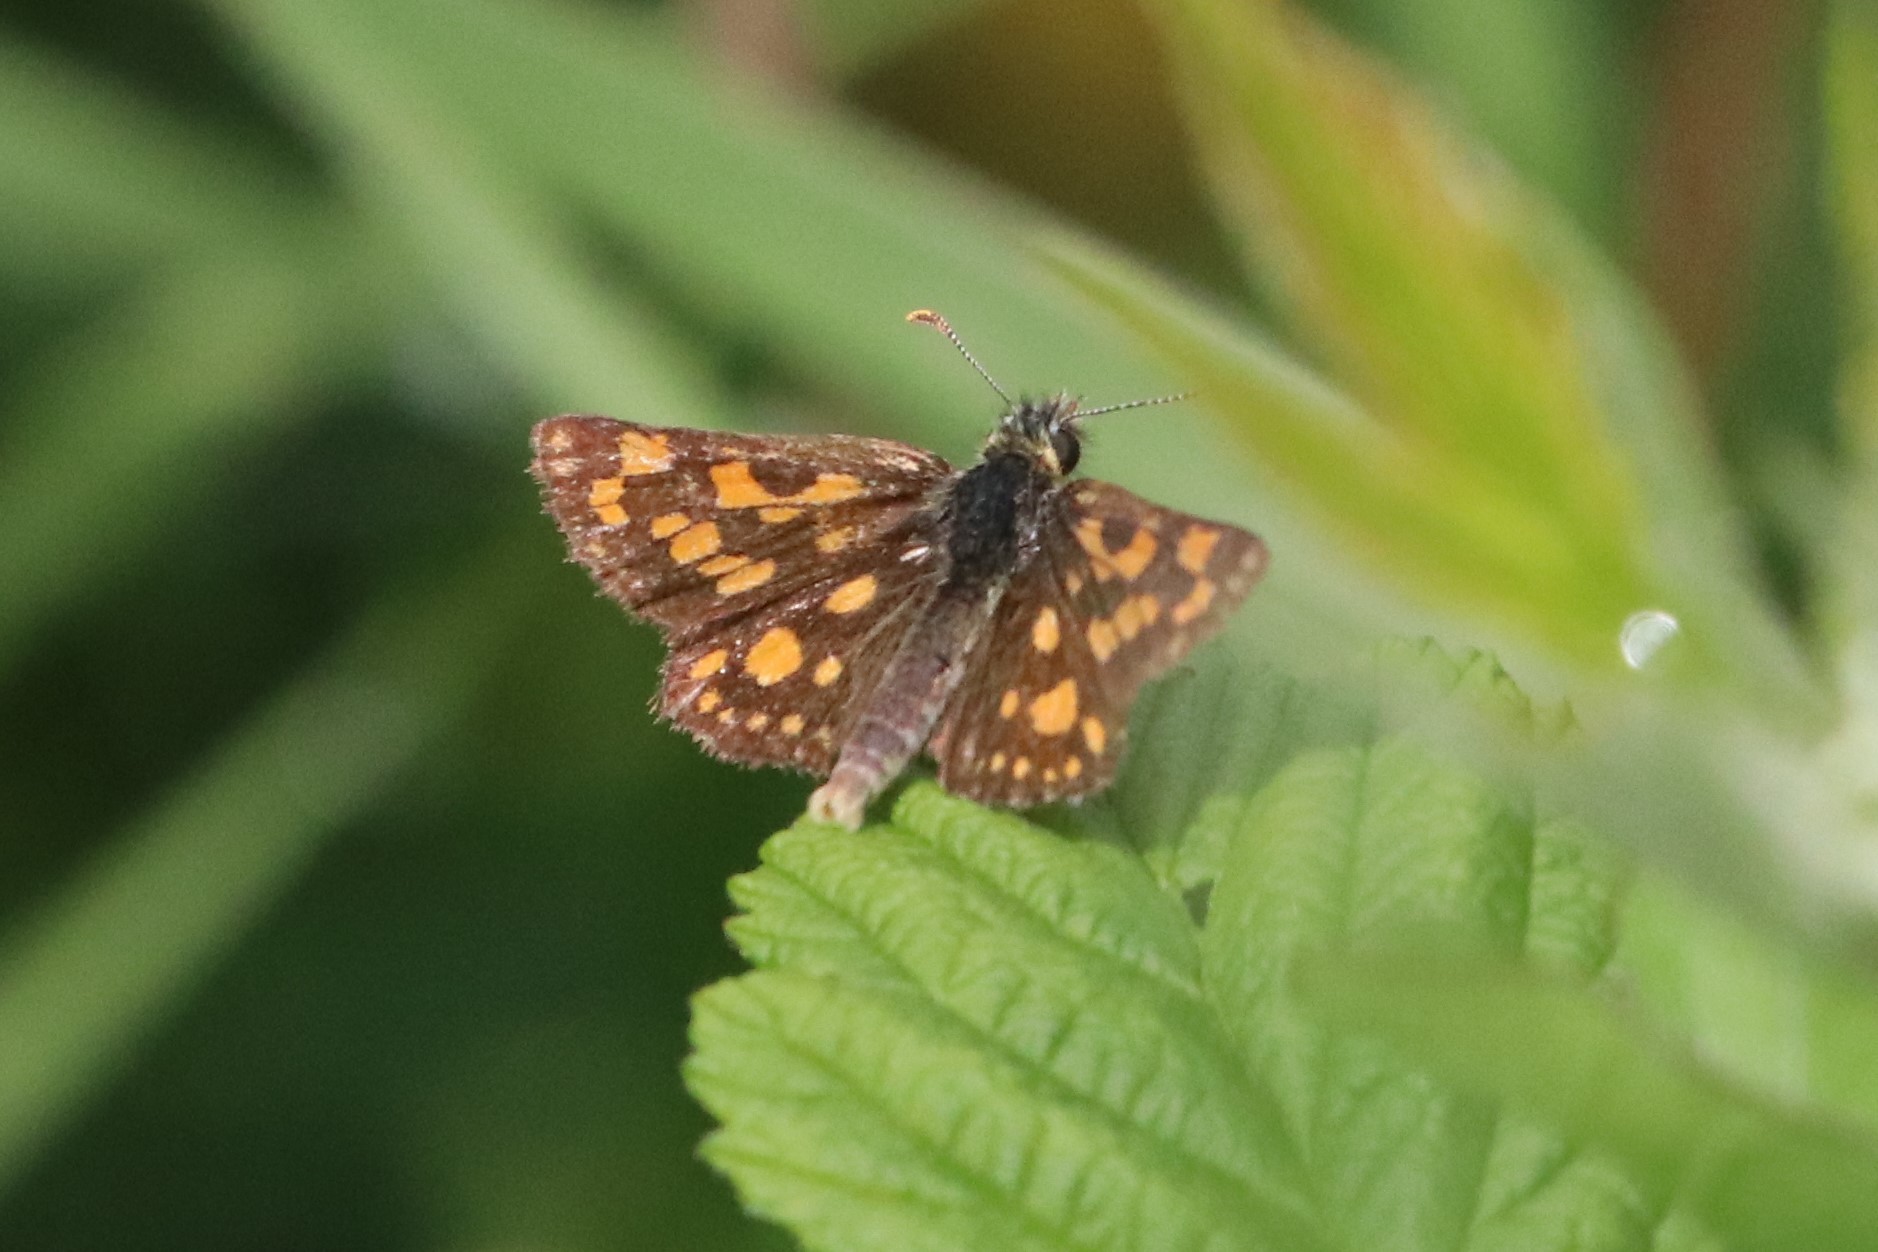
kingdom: Animalia
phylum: Arthropoda
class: Insecta
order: Lepidoptera
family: Hesperiidae
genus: Carterocephalus
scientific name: Carterocephalus mandan
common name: Arctic skipperling
